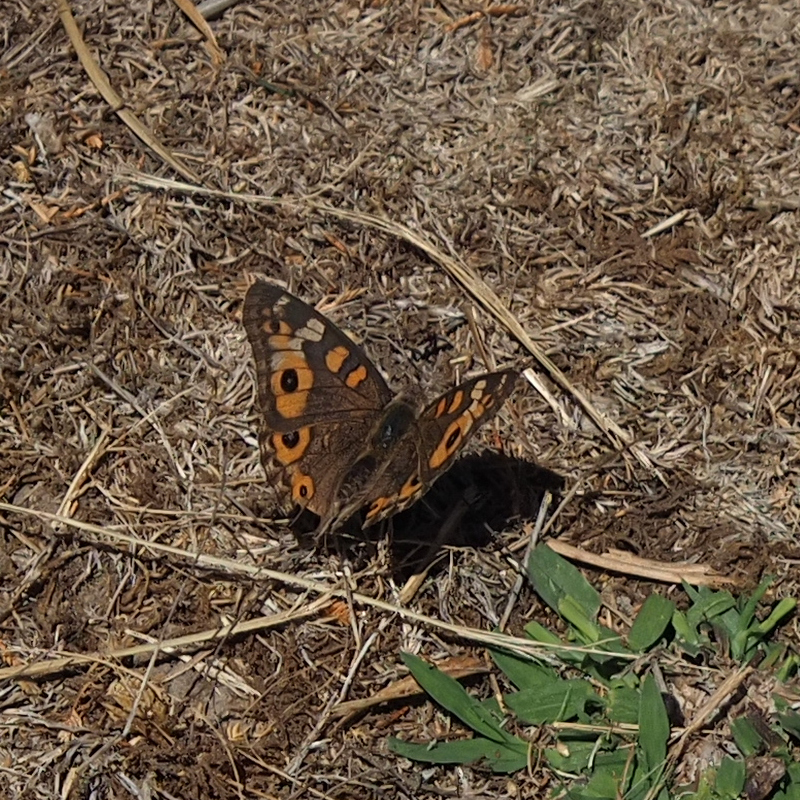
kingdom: Animalia
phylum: Arthropoda
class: Insecta
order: Lepidoptera
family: Nymphalidae
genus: Junonia
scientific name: Junonia villida
